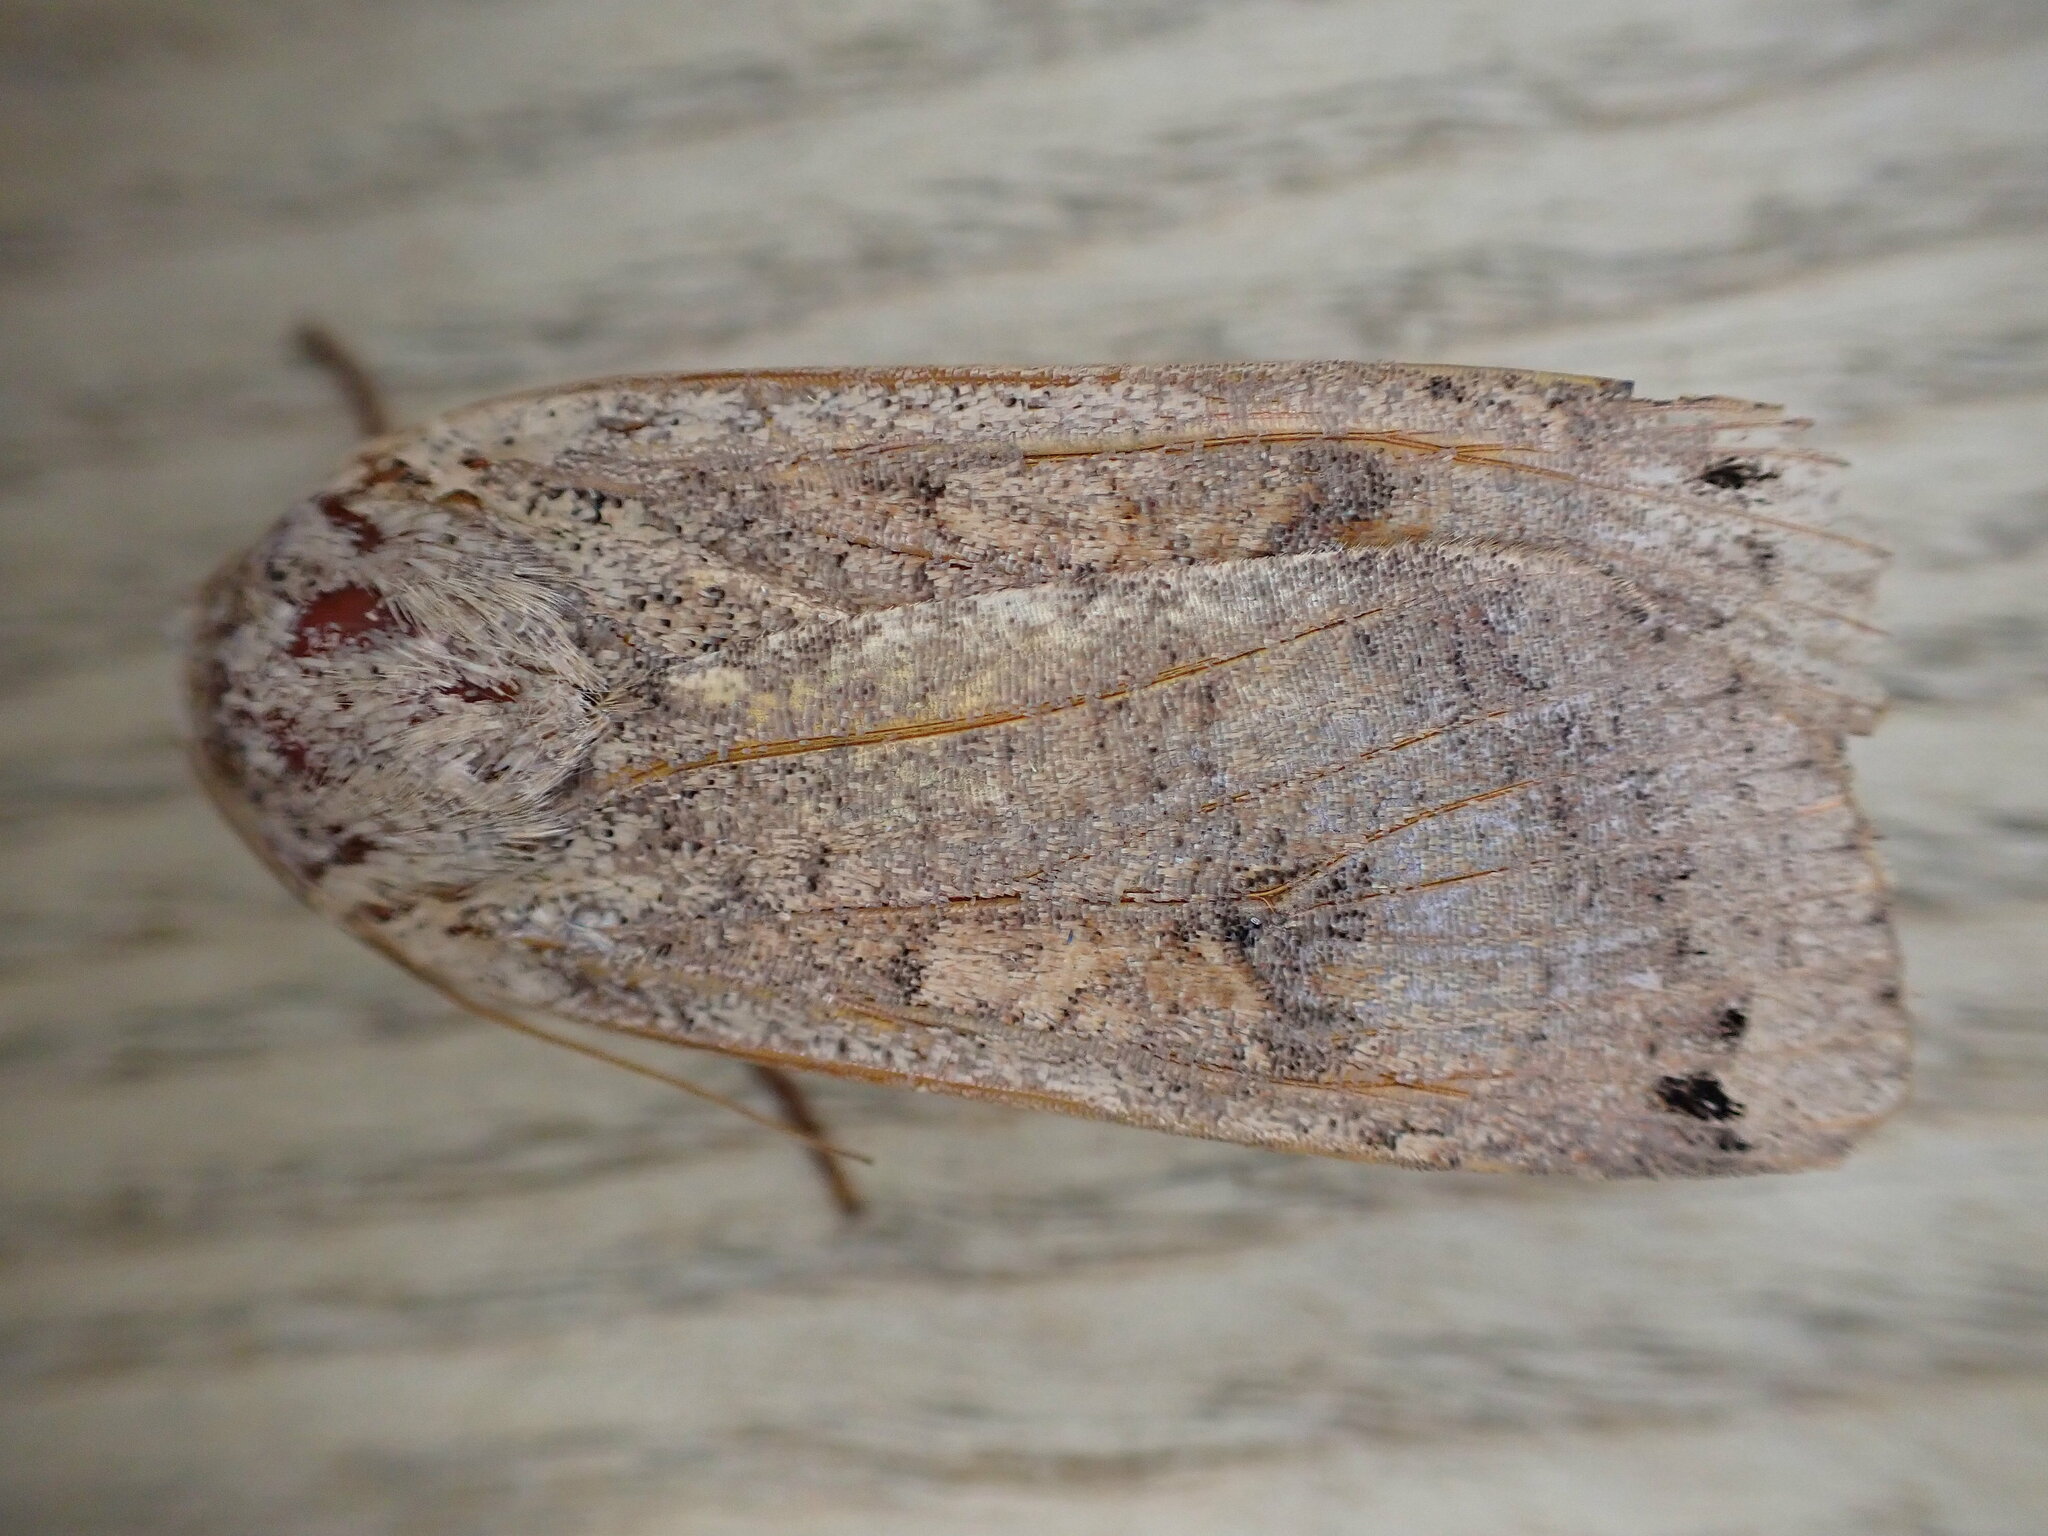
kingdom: Animalia
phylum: Arthropoda
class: Insecta
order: Lepidoptera
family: Noctuidae
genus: Noctua
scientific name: Noctua pronuba
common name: Large yellow underwing
